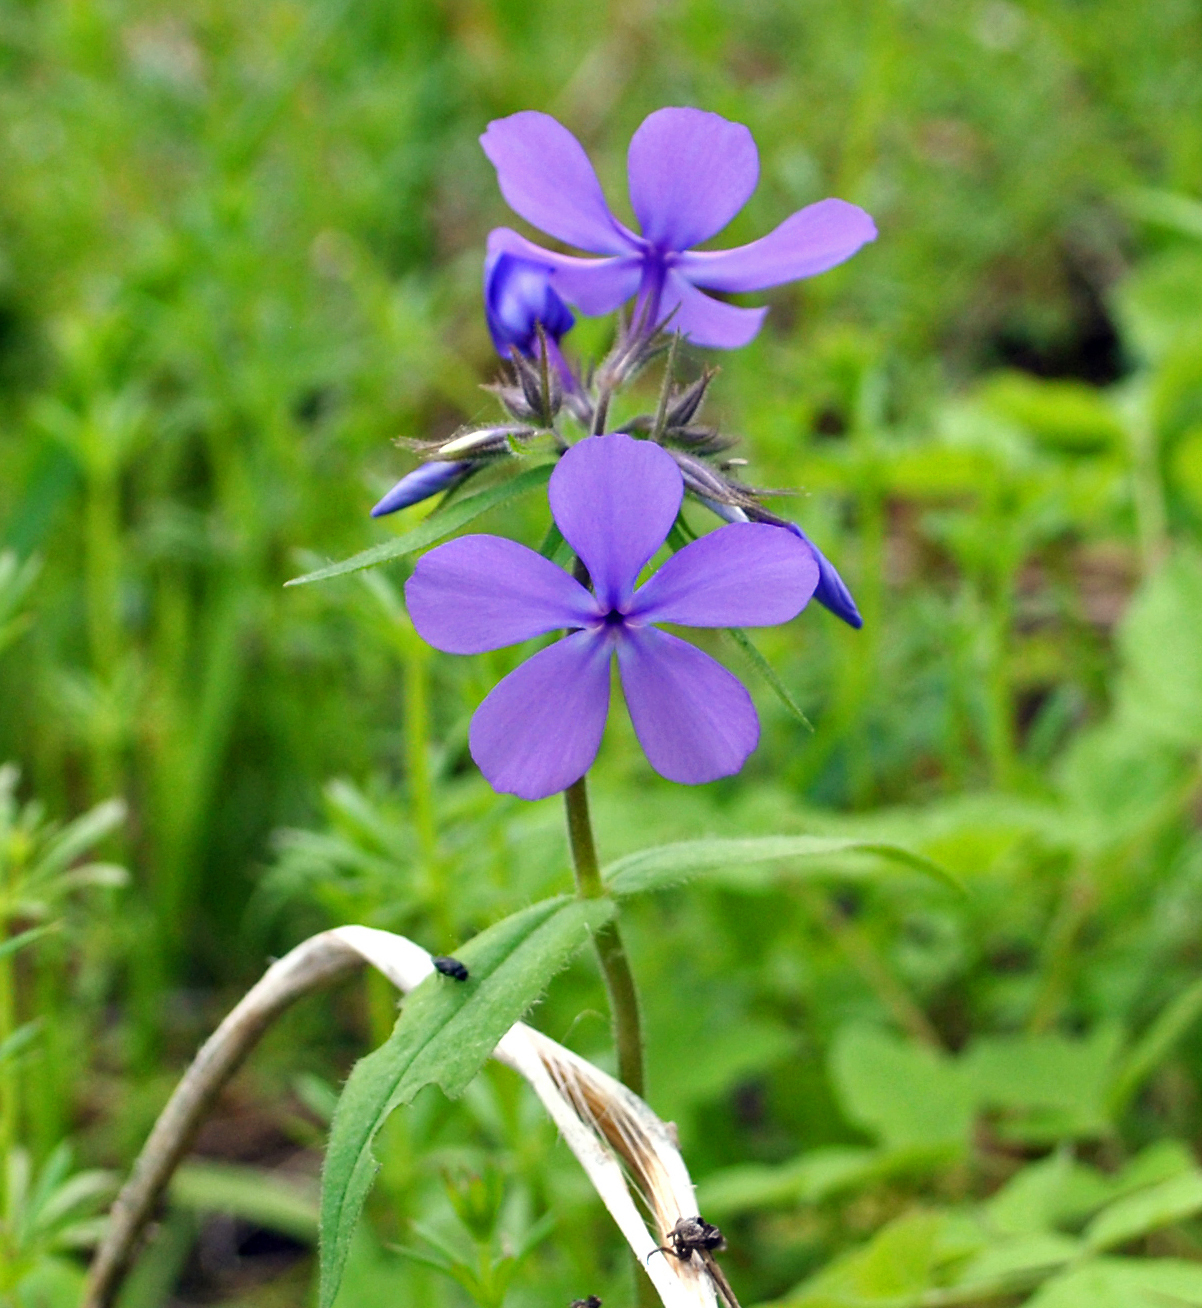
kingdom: Plantae
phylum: Tracheophyta
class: Magnoliopsida
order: Ericales
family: Polemoniaceae
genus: Phlox
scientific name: Phlox divaricata
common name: Blue phlox
